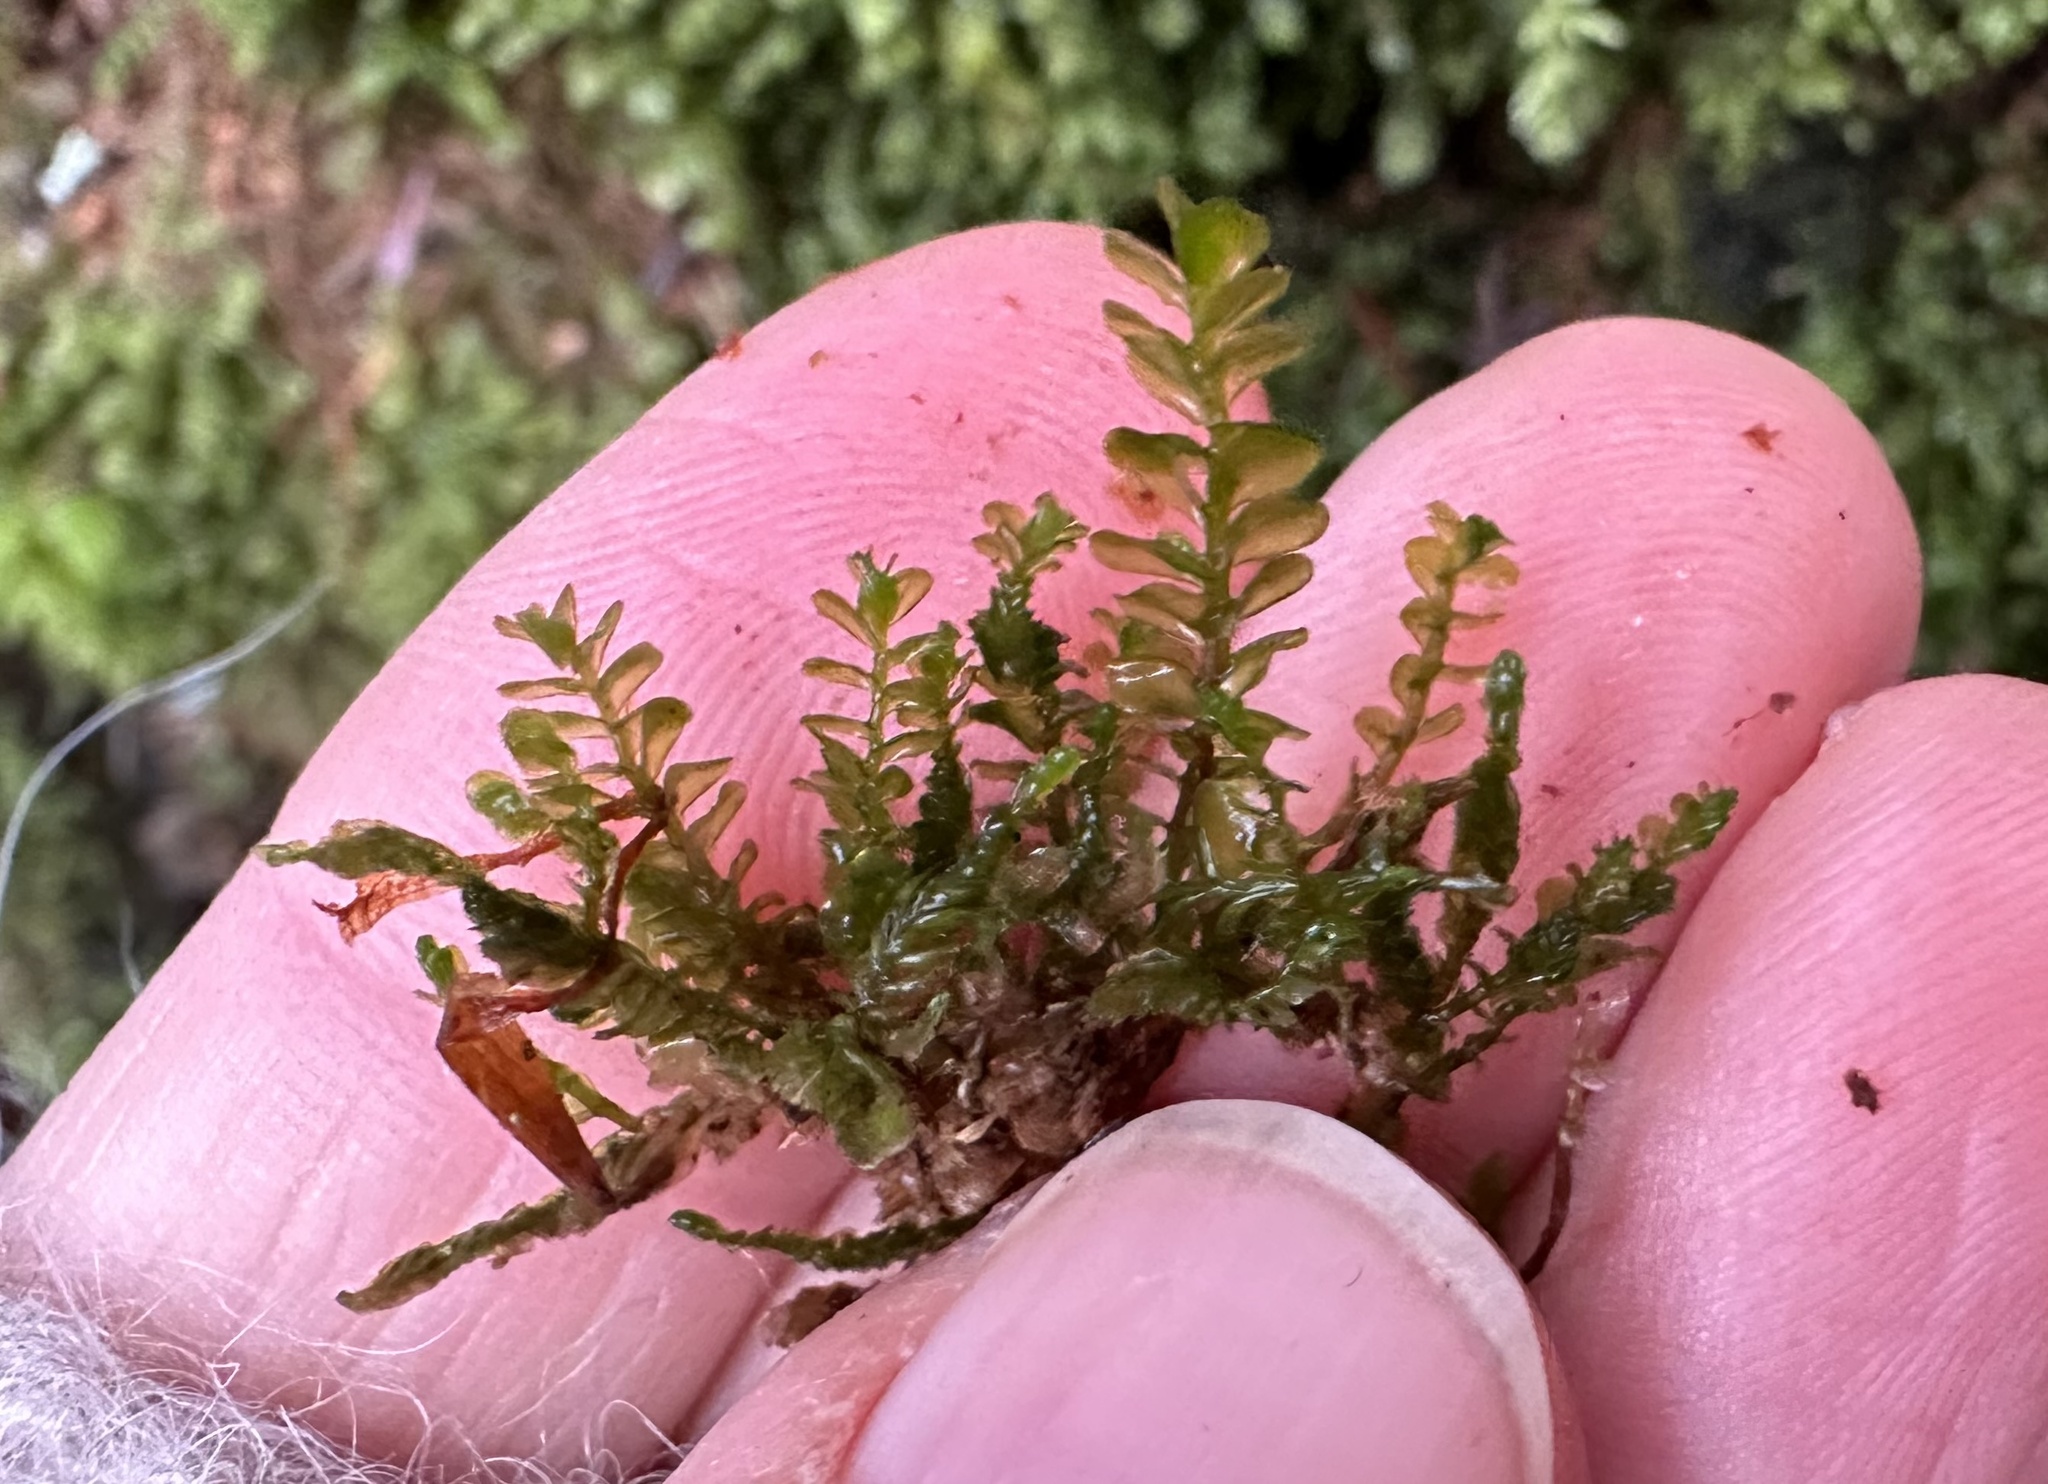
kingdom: Plantae
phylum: Marchantiophyta
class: Jungermanniopsida
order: Jungermanniales
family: Plagiochilaceae
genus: Plagiochila
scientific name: Plagiochila porelloides
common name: Lesser featherwort
